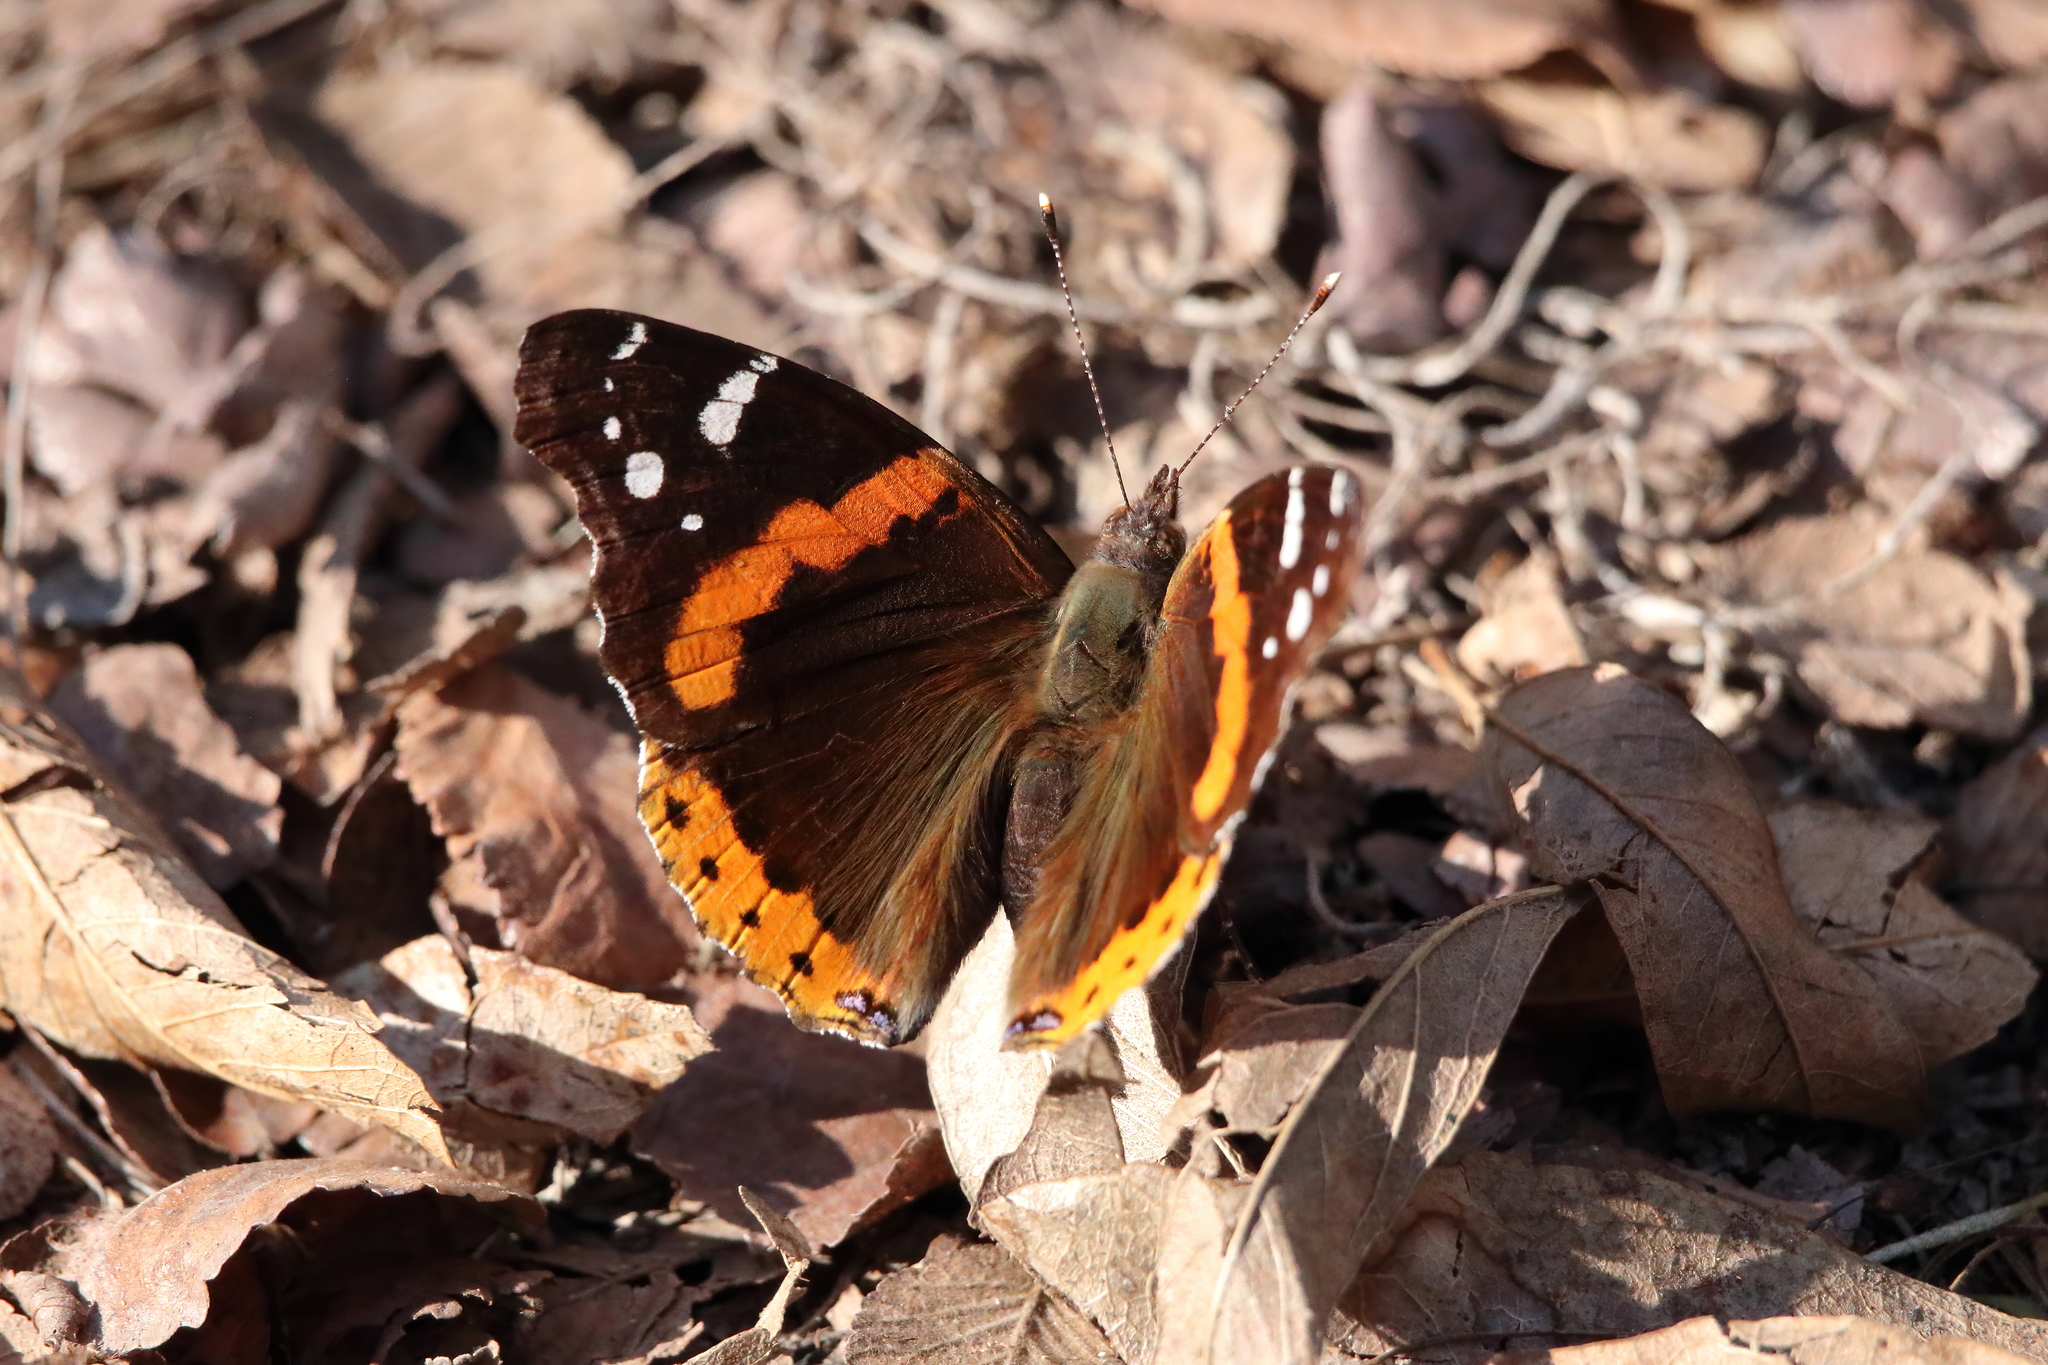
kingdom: Animalia
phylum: Arthropoda
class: Insecta
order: Lepidoptera
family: Nymphalidae
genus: Vanessa
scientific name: Vanessa atalanta
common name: Red admiral
